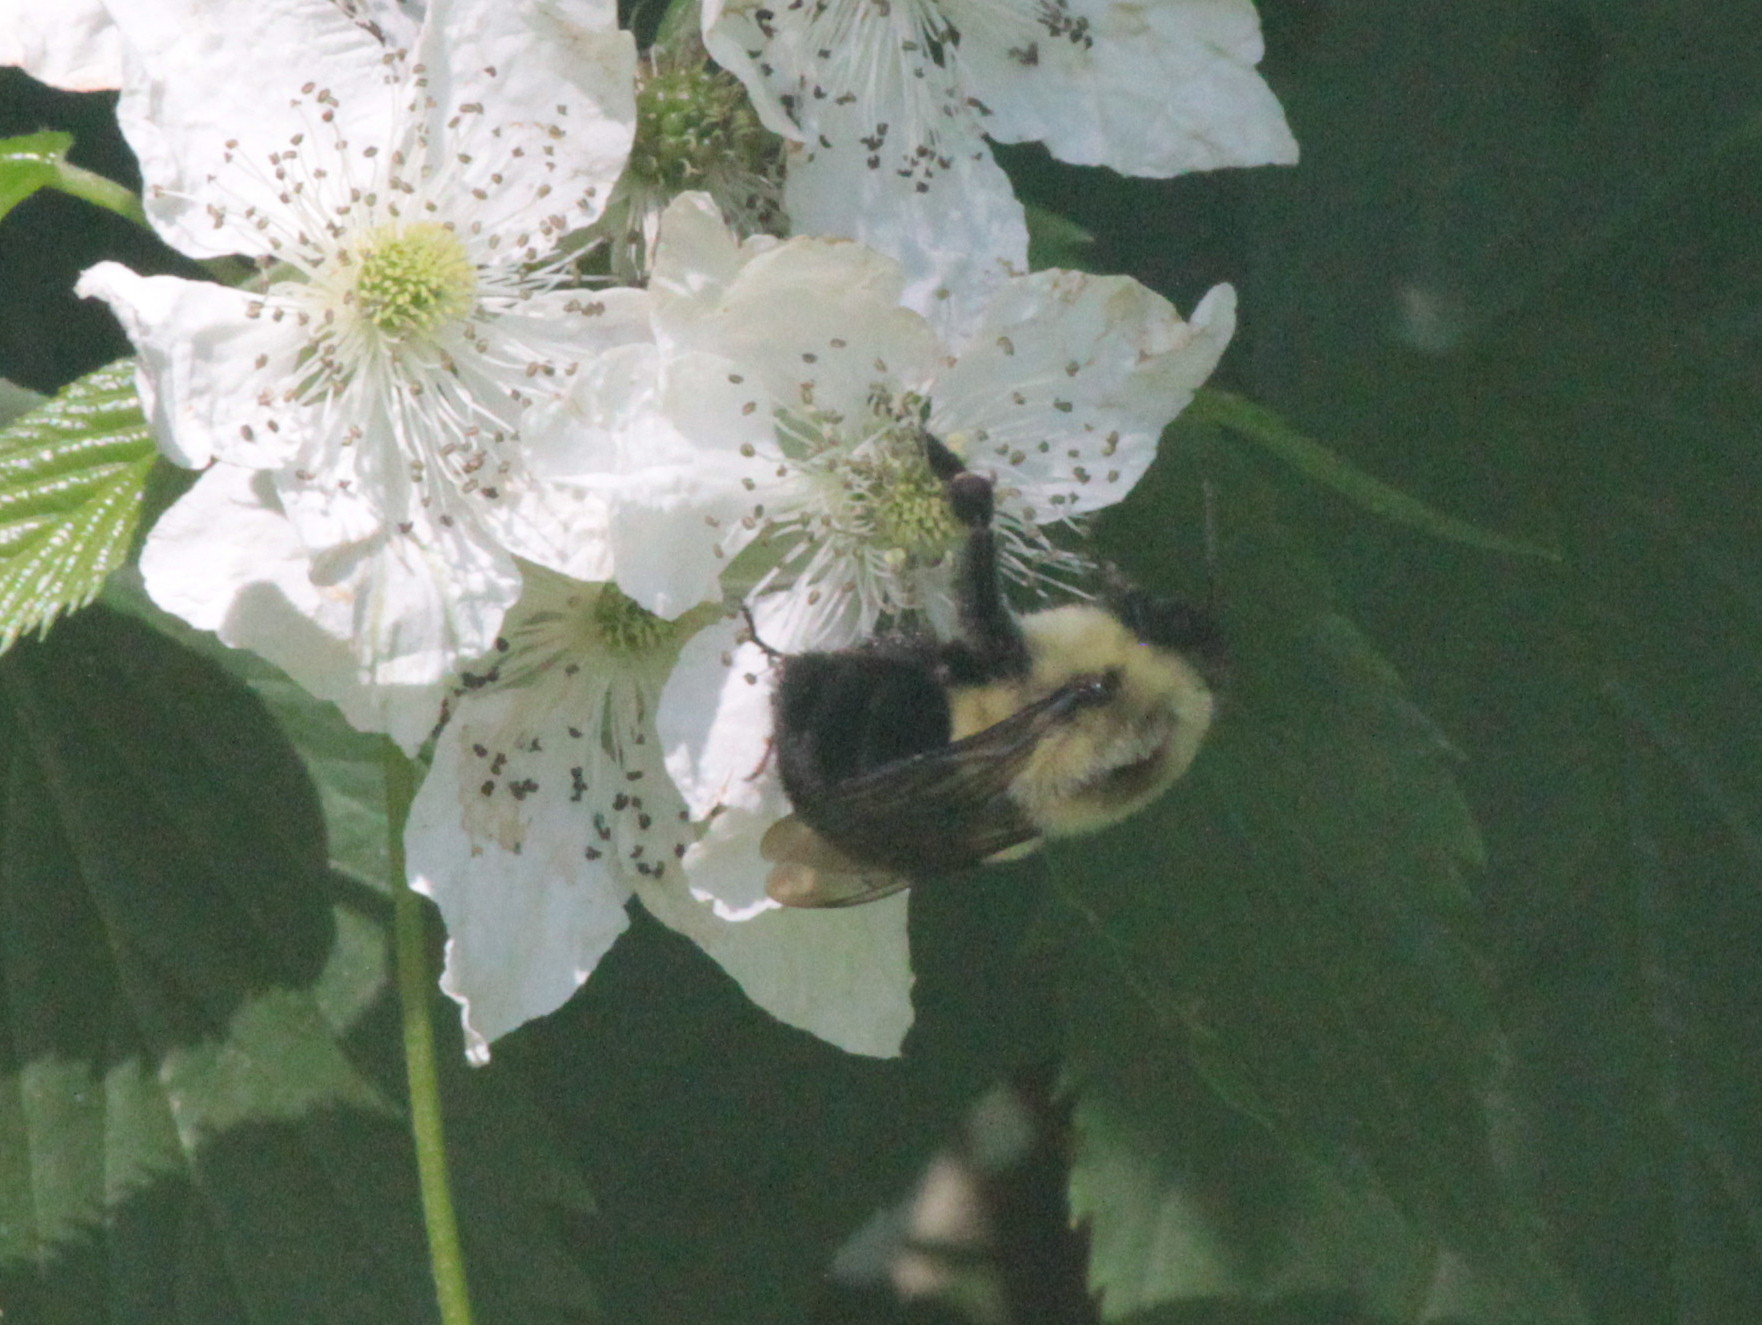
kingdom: Animalia
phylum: Arthropoda
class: Insecta
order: Hymenoptera
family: Apidae
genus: Bombus
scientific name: Bombus impatiens
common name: Common eastern bumble bee
